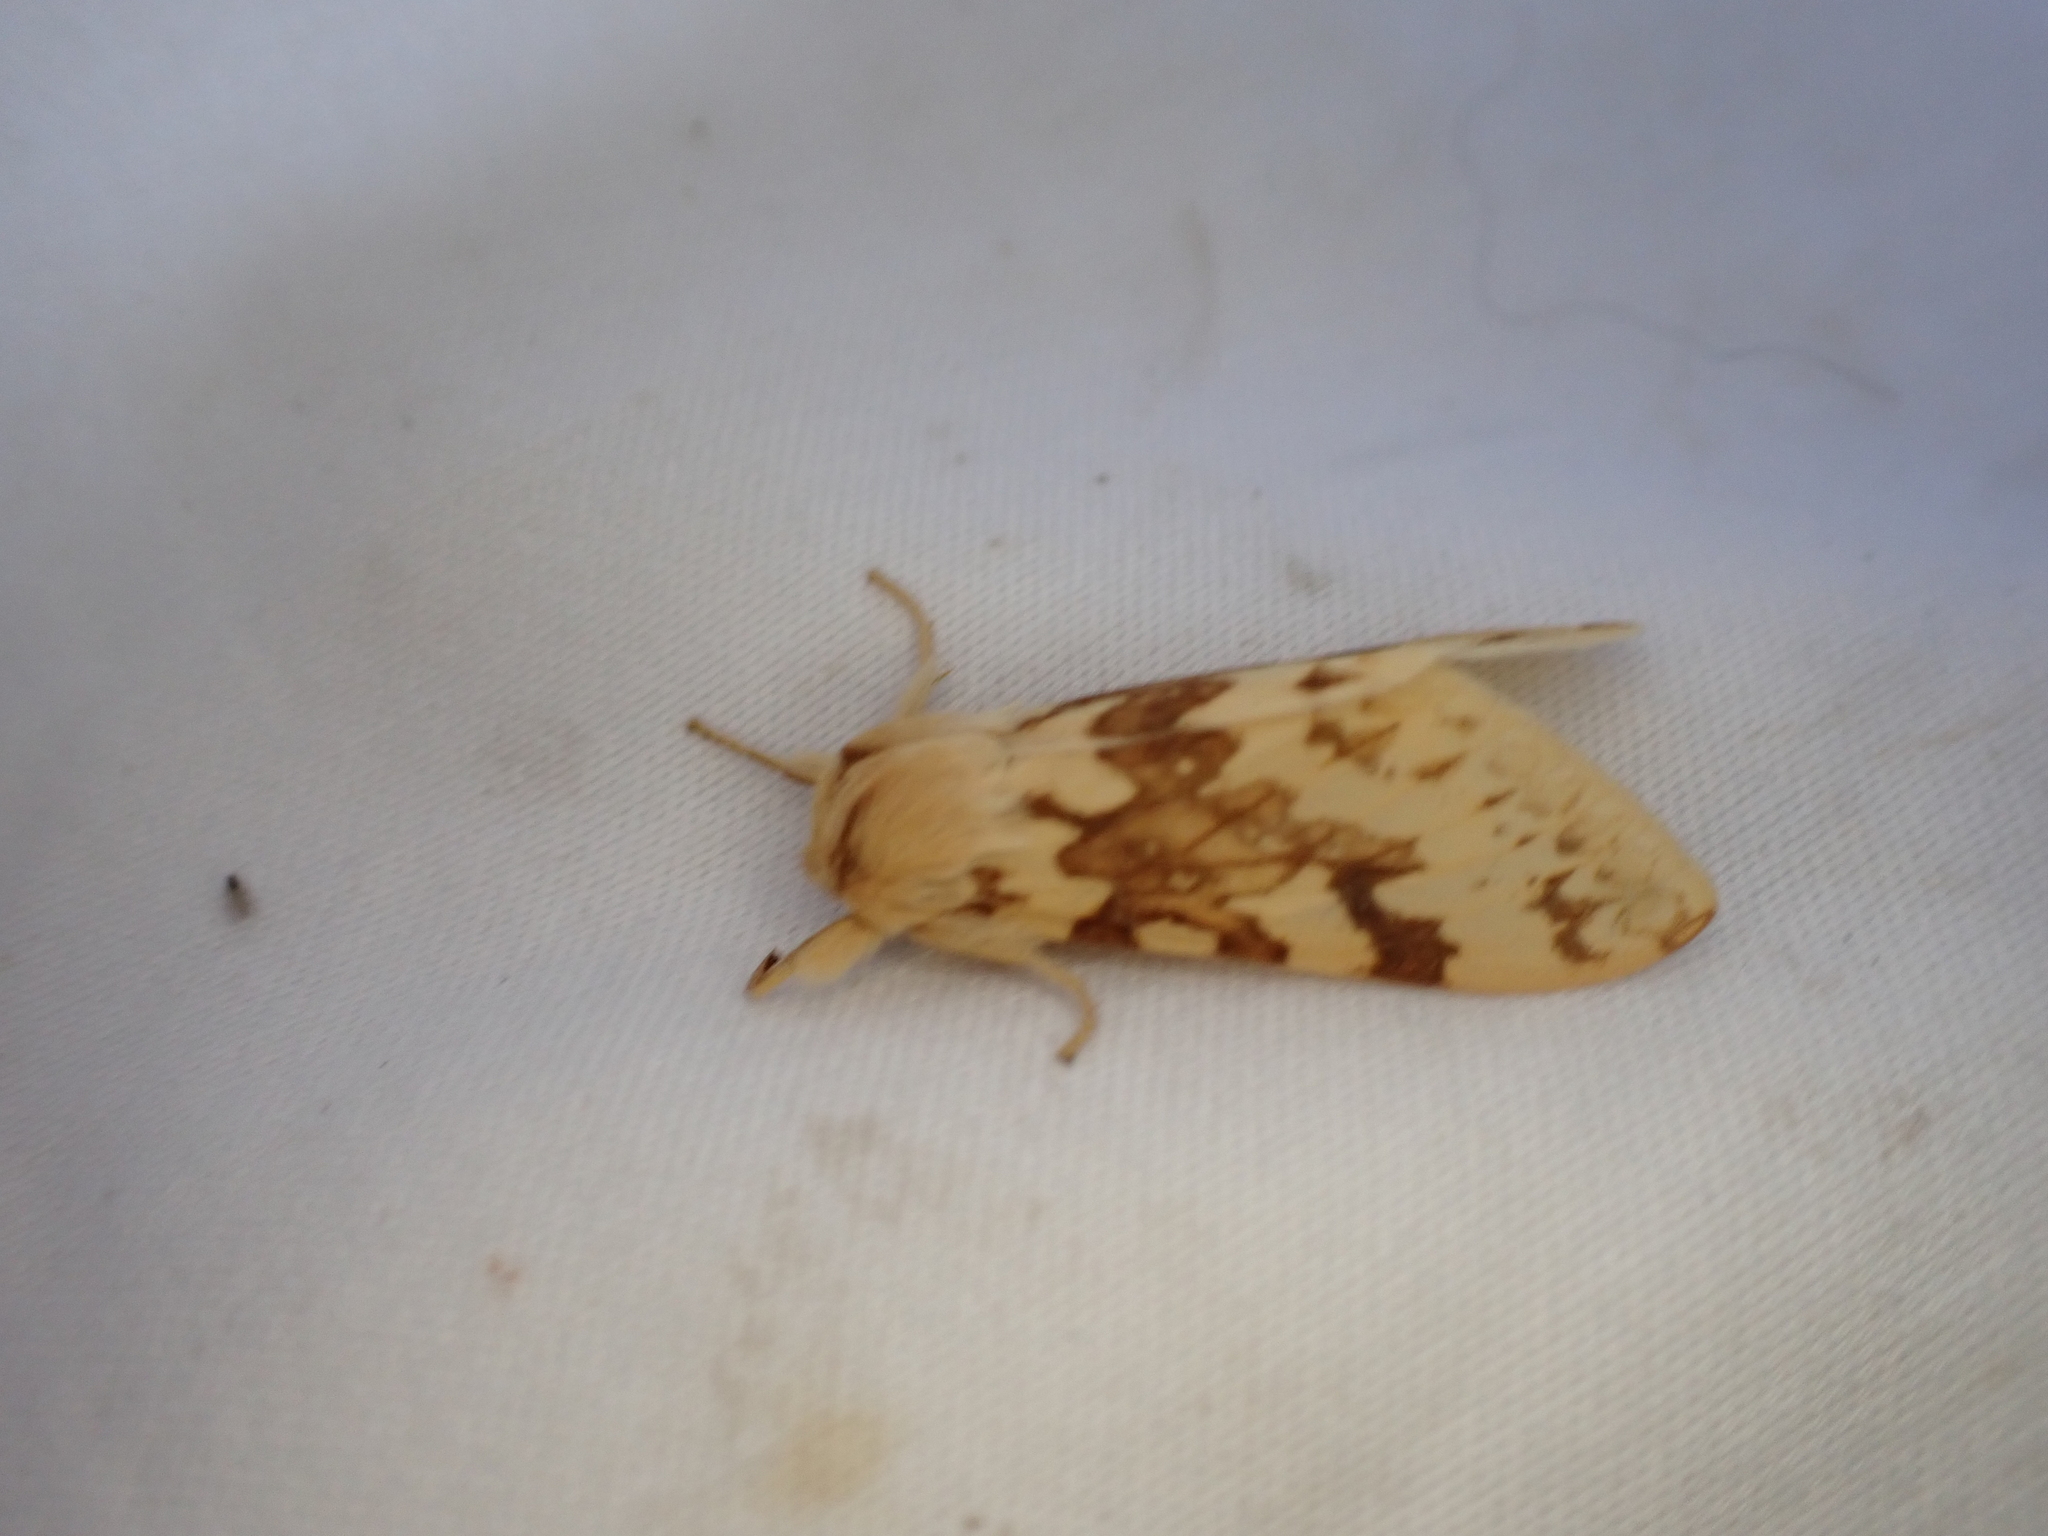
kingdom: Animalia
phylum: Arthropoda
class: Insecta
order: Lepidoptera
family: Erebidae
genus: Lophocampa
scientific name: Lophocampa maculata
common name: Spotted tussock moth
